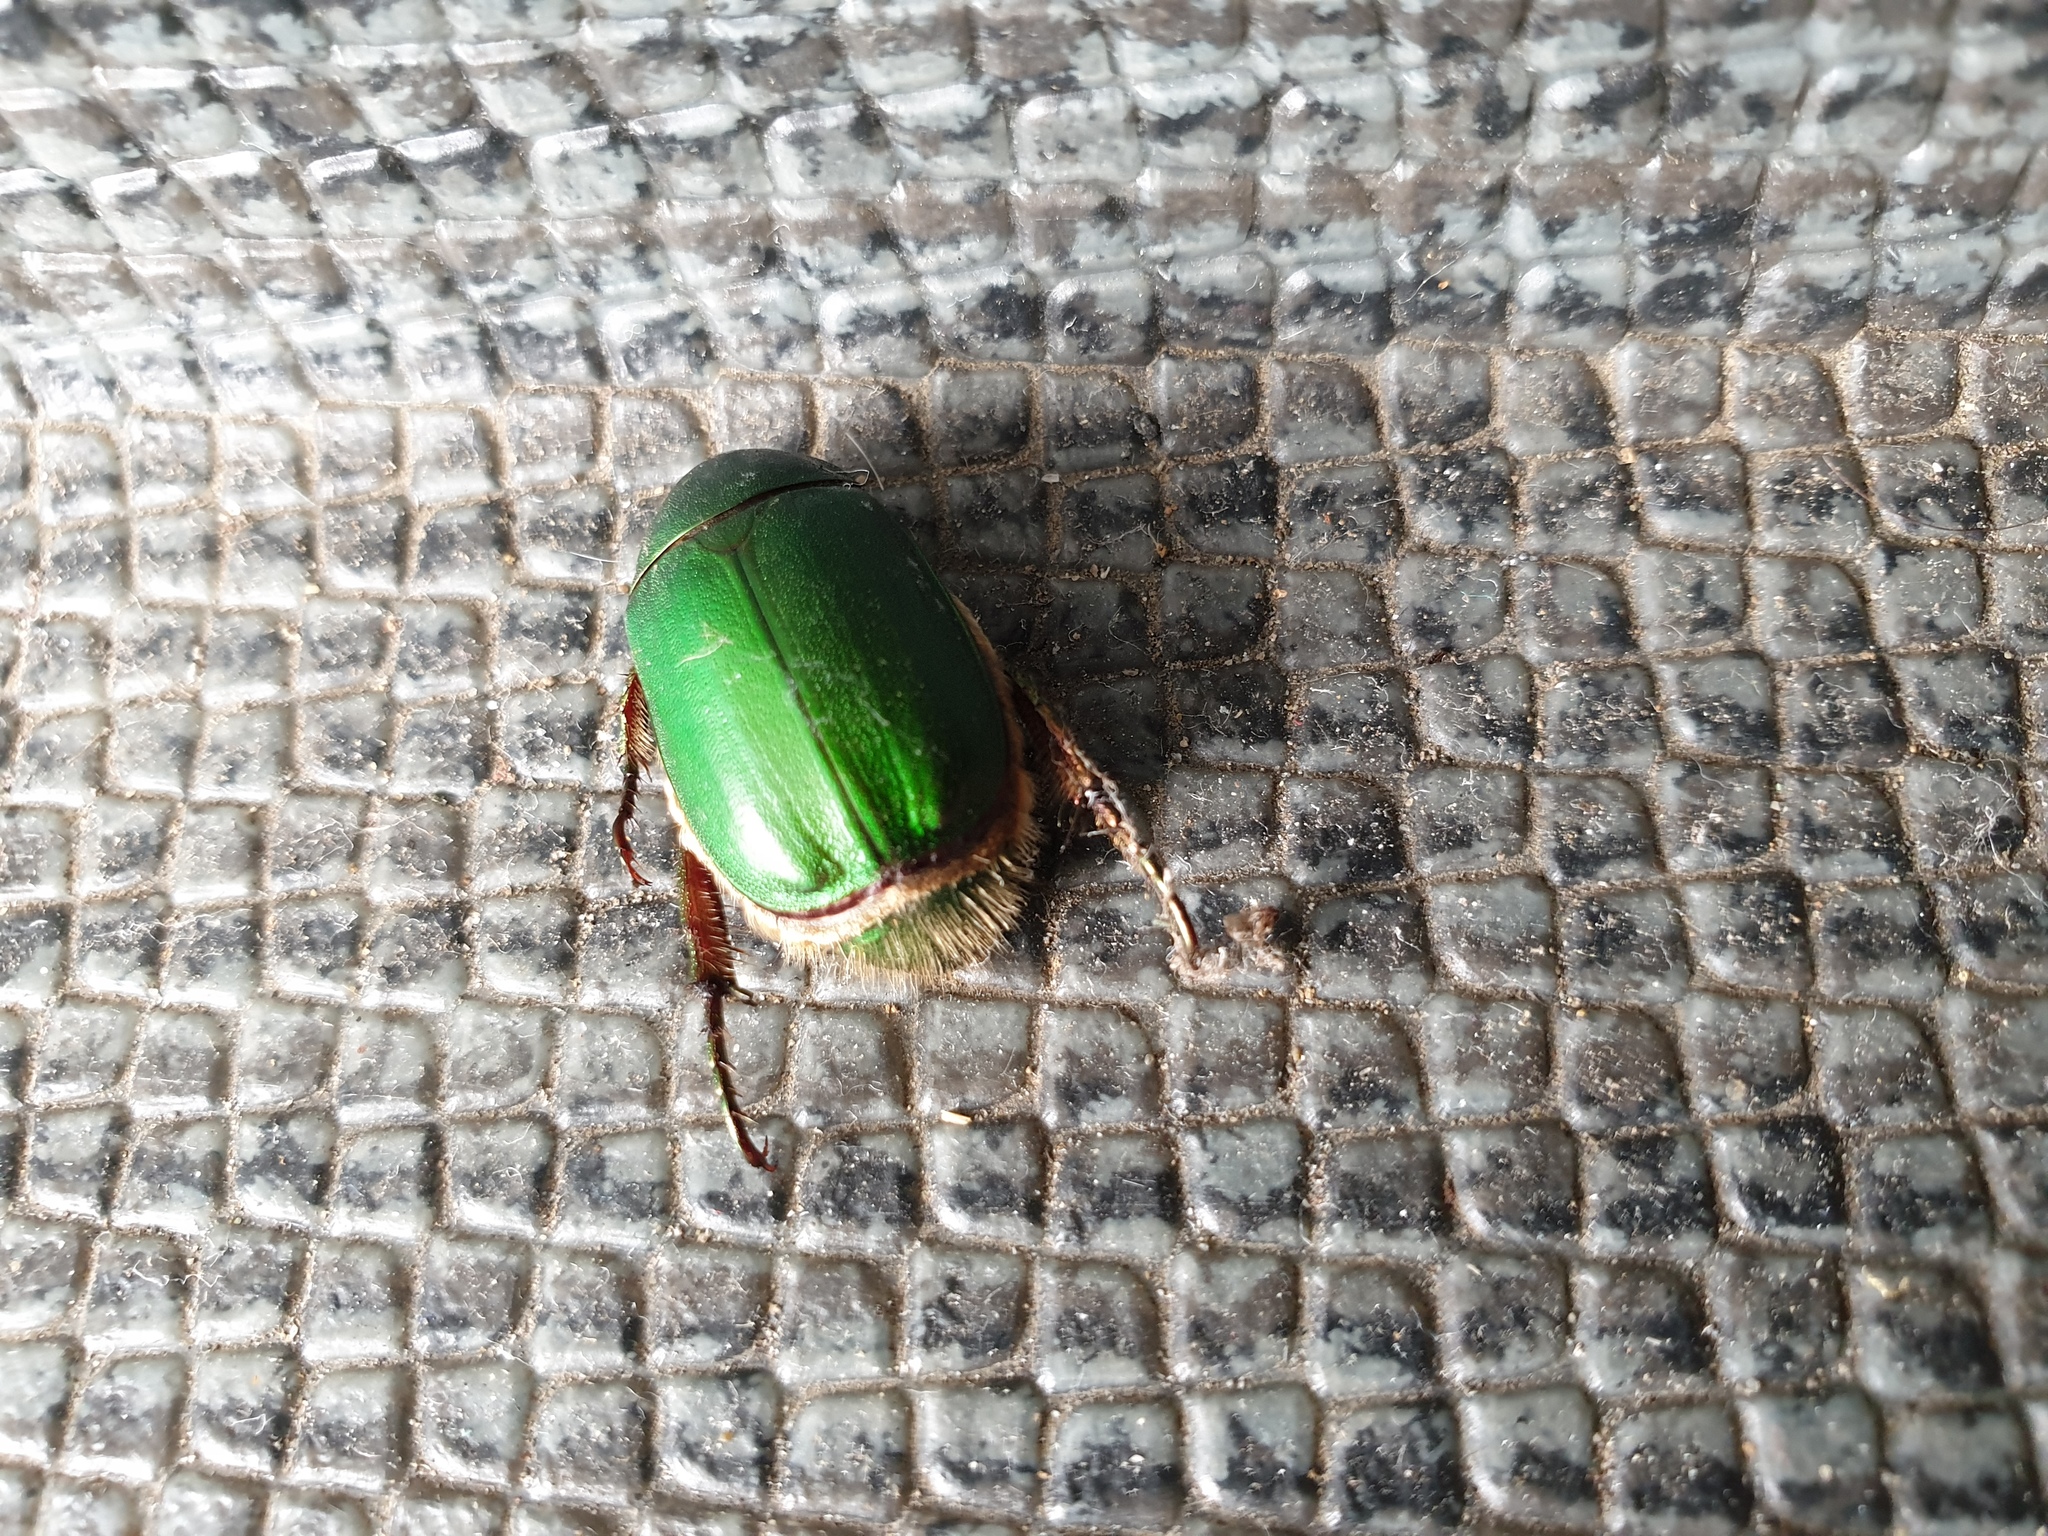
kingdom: Animalia
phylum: Arthropoda
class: Insecta
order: Coleoptera
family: Scarabaeidae
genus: Anomala
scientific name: Anomala albopilosa
